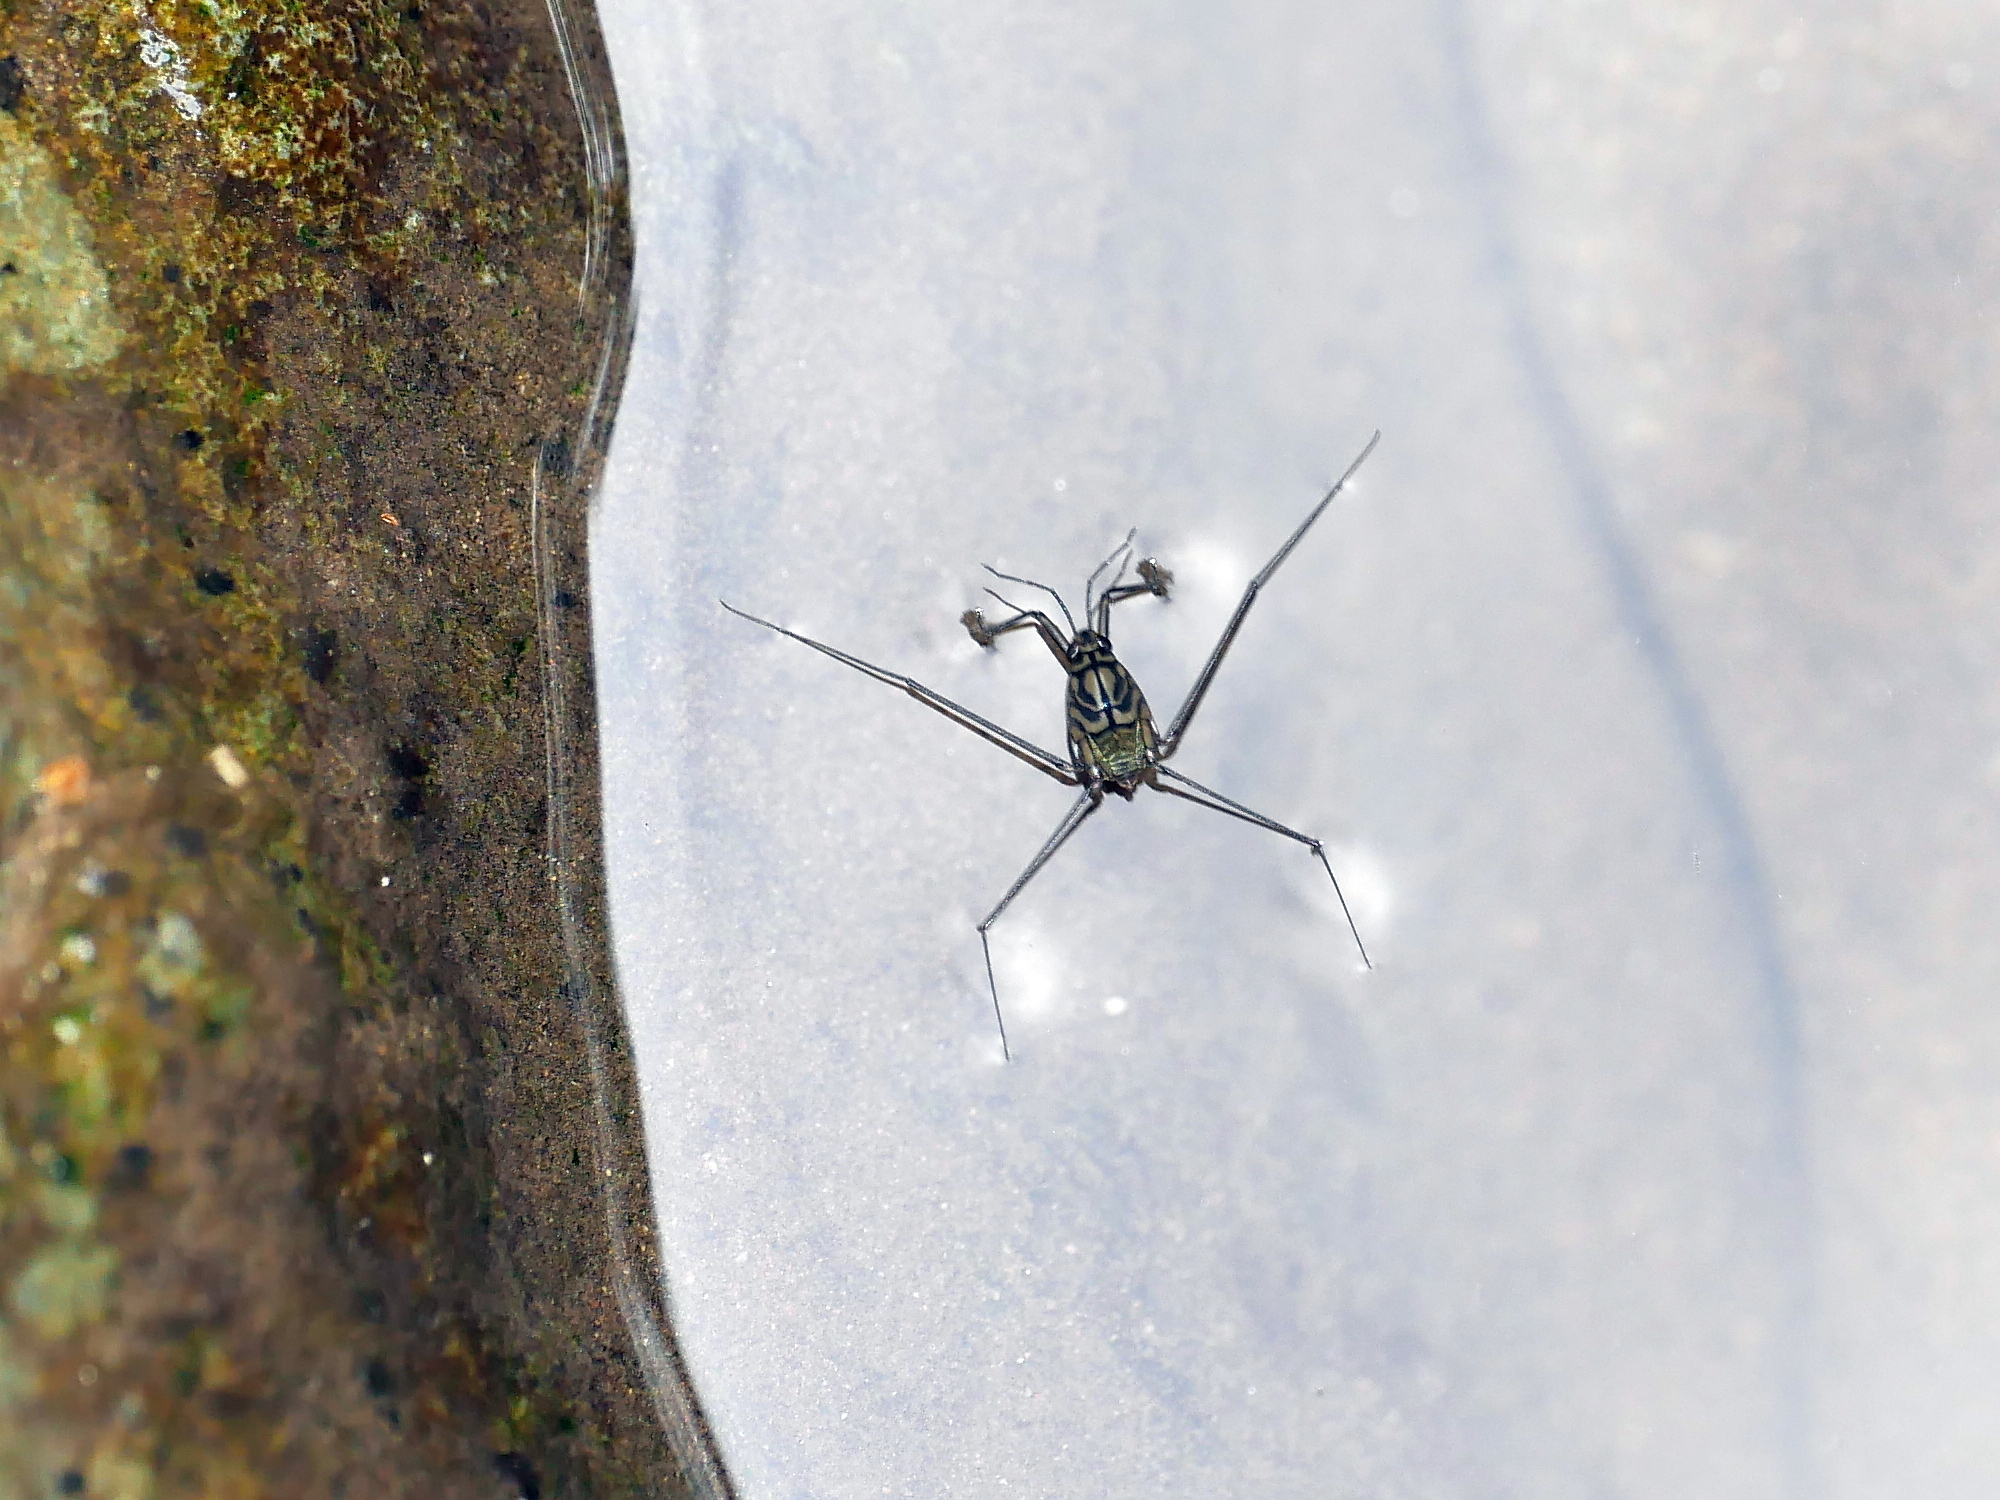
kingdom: Animalia
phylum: Arthropoda
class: Insecta
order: Hemiptera
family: Gerridae
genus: Metrocoris
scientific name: Metrocoris esakii
